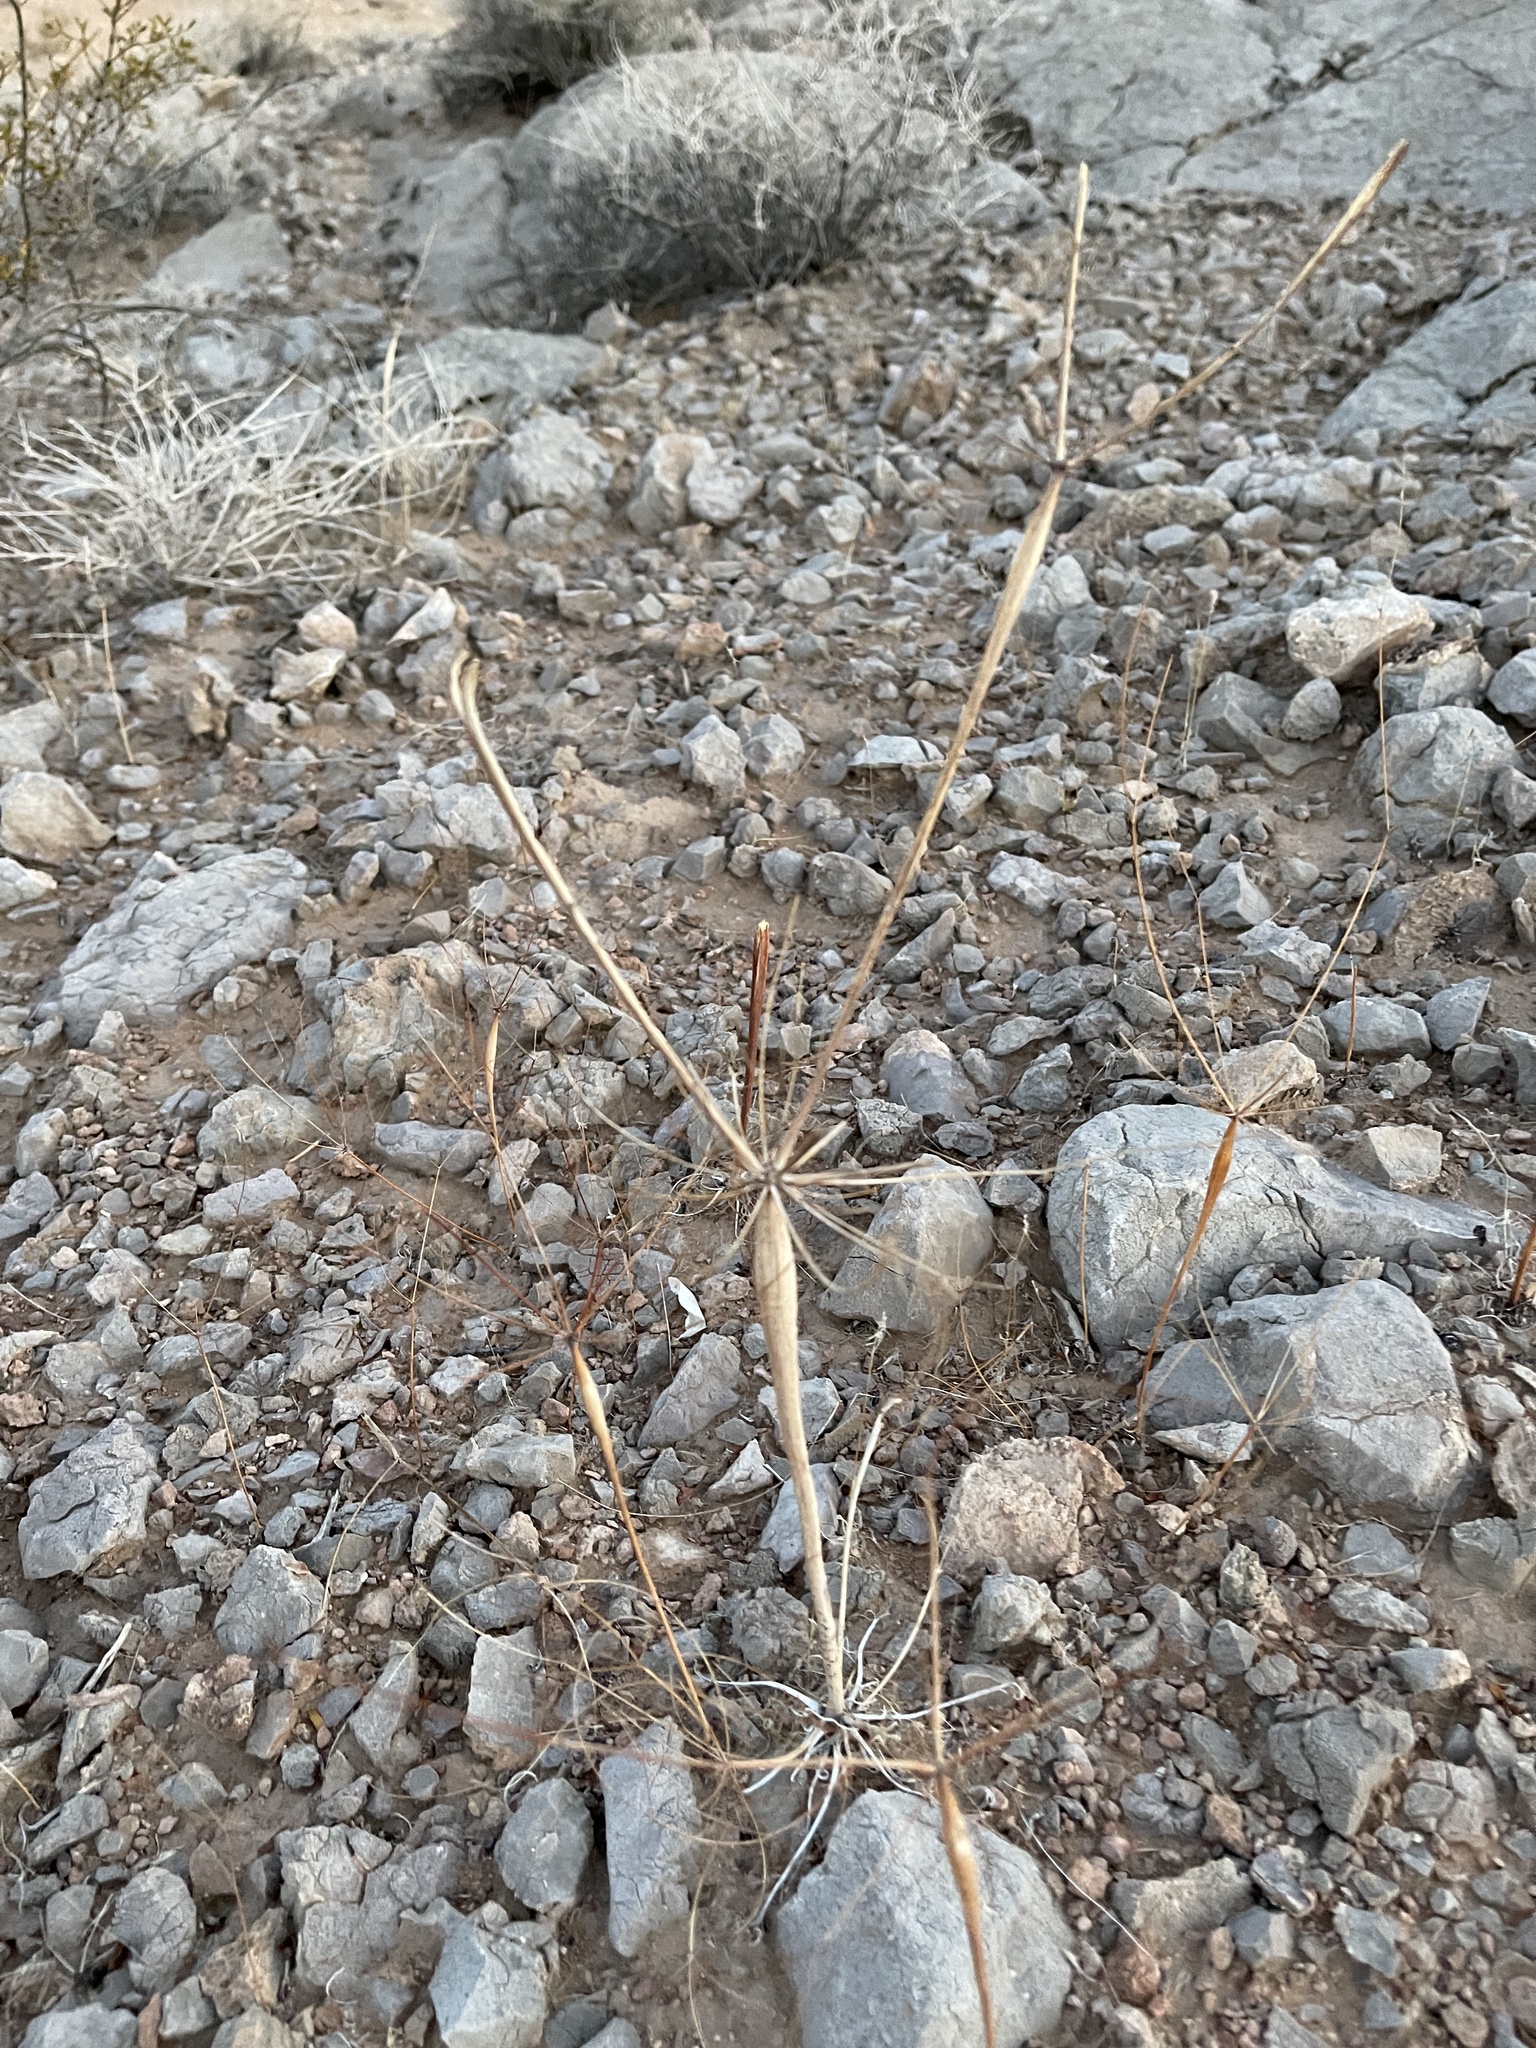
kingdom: Plantae
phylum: Tracheophyta
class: Magnoliopsida
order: Caryophyllales
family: Polygonaceae
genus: Eriogonum
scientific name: Eriogonum inflatum
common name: Desert trumpet
